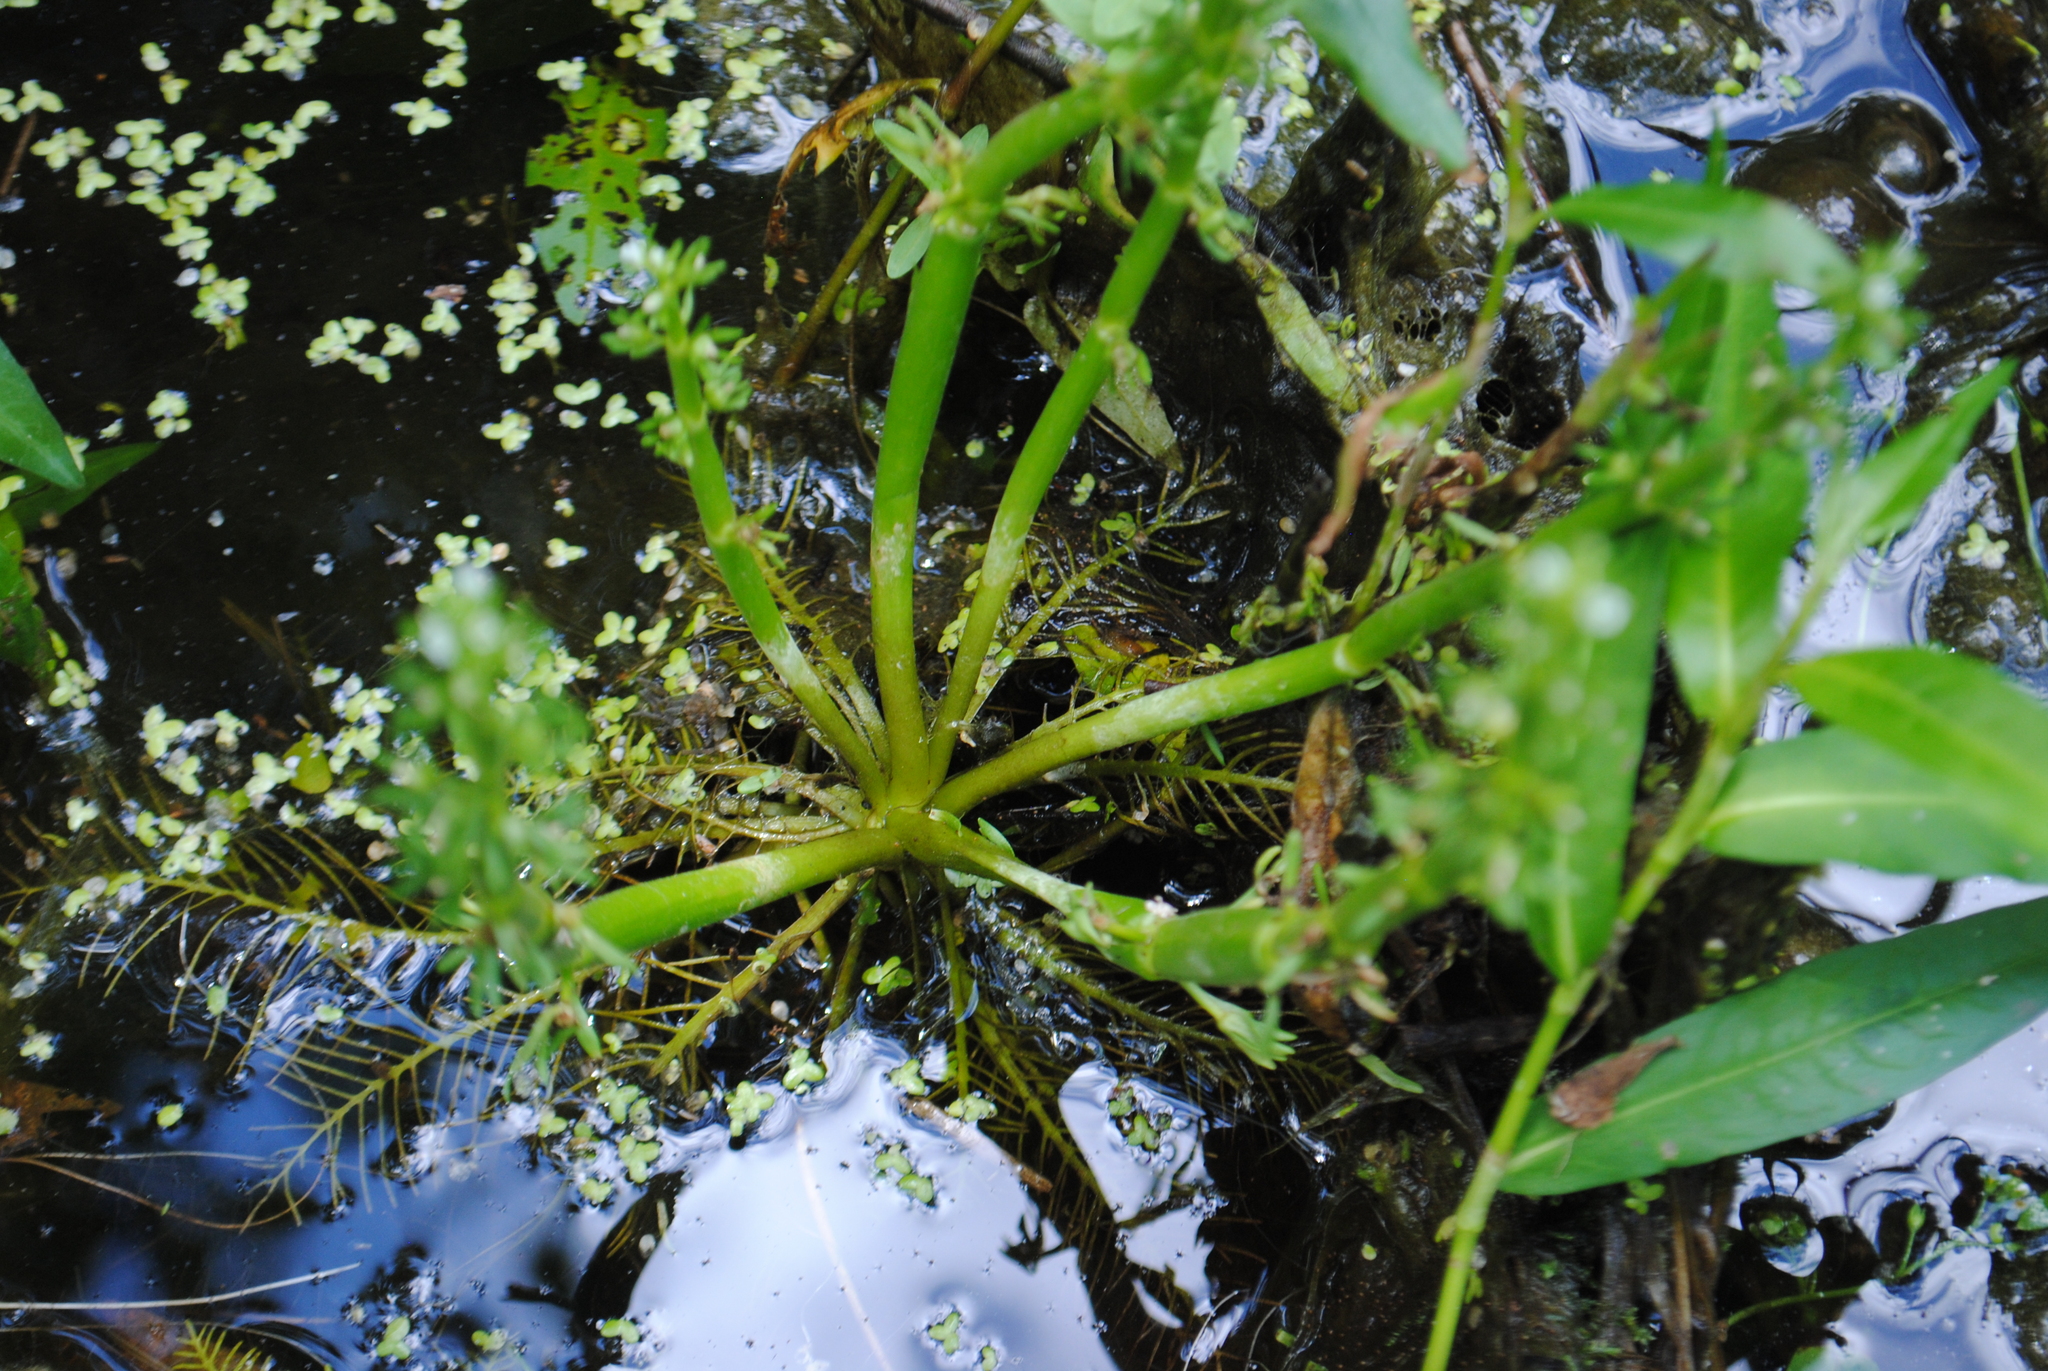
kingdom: Plantae
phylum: Tracheophyta
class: Magnoliopsida
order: Ericales
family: Primulaceae
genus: Hottonia
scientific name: Hottonia inflata
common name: American featherfoil
